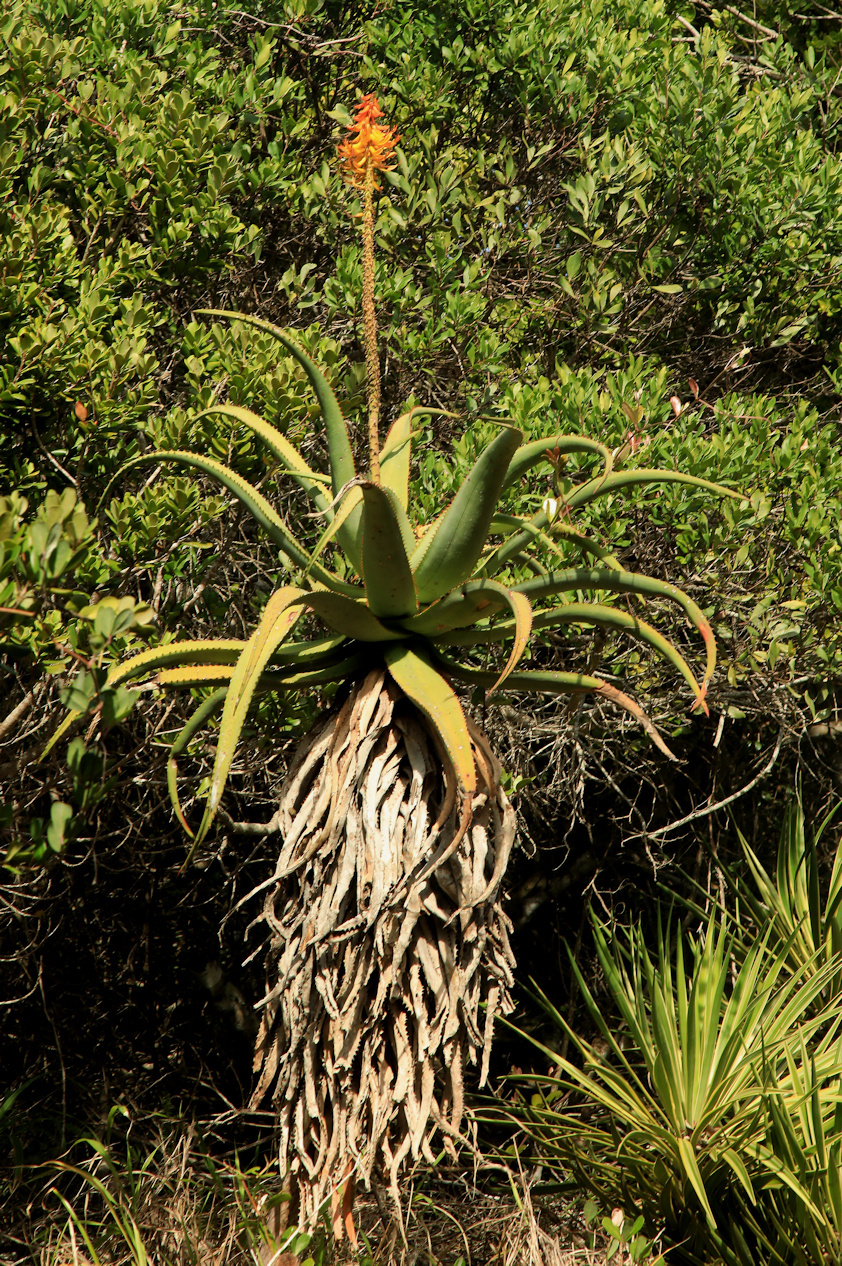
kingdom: Plantae
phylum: Tracheophyta
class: Liliopsida
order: Asparagales
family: Asphodelaceae
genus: Aloe
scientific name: Aloe africana
